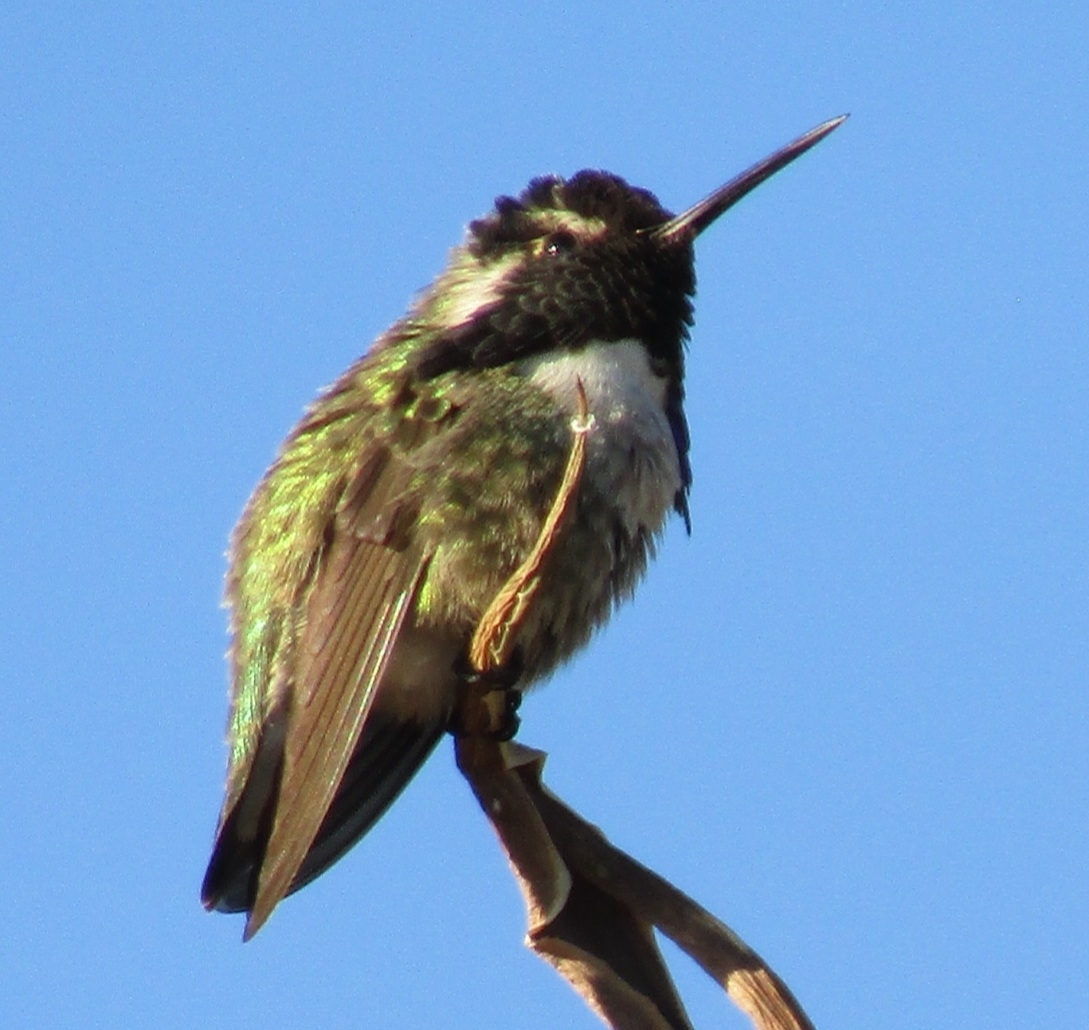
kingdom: Animalia
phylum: Chordata
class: Aves
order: Apodiformes
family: Trochilidae
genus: Calypte
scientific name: Calypte costae
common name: Costa's hummingbird
